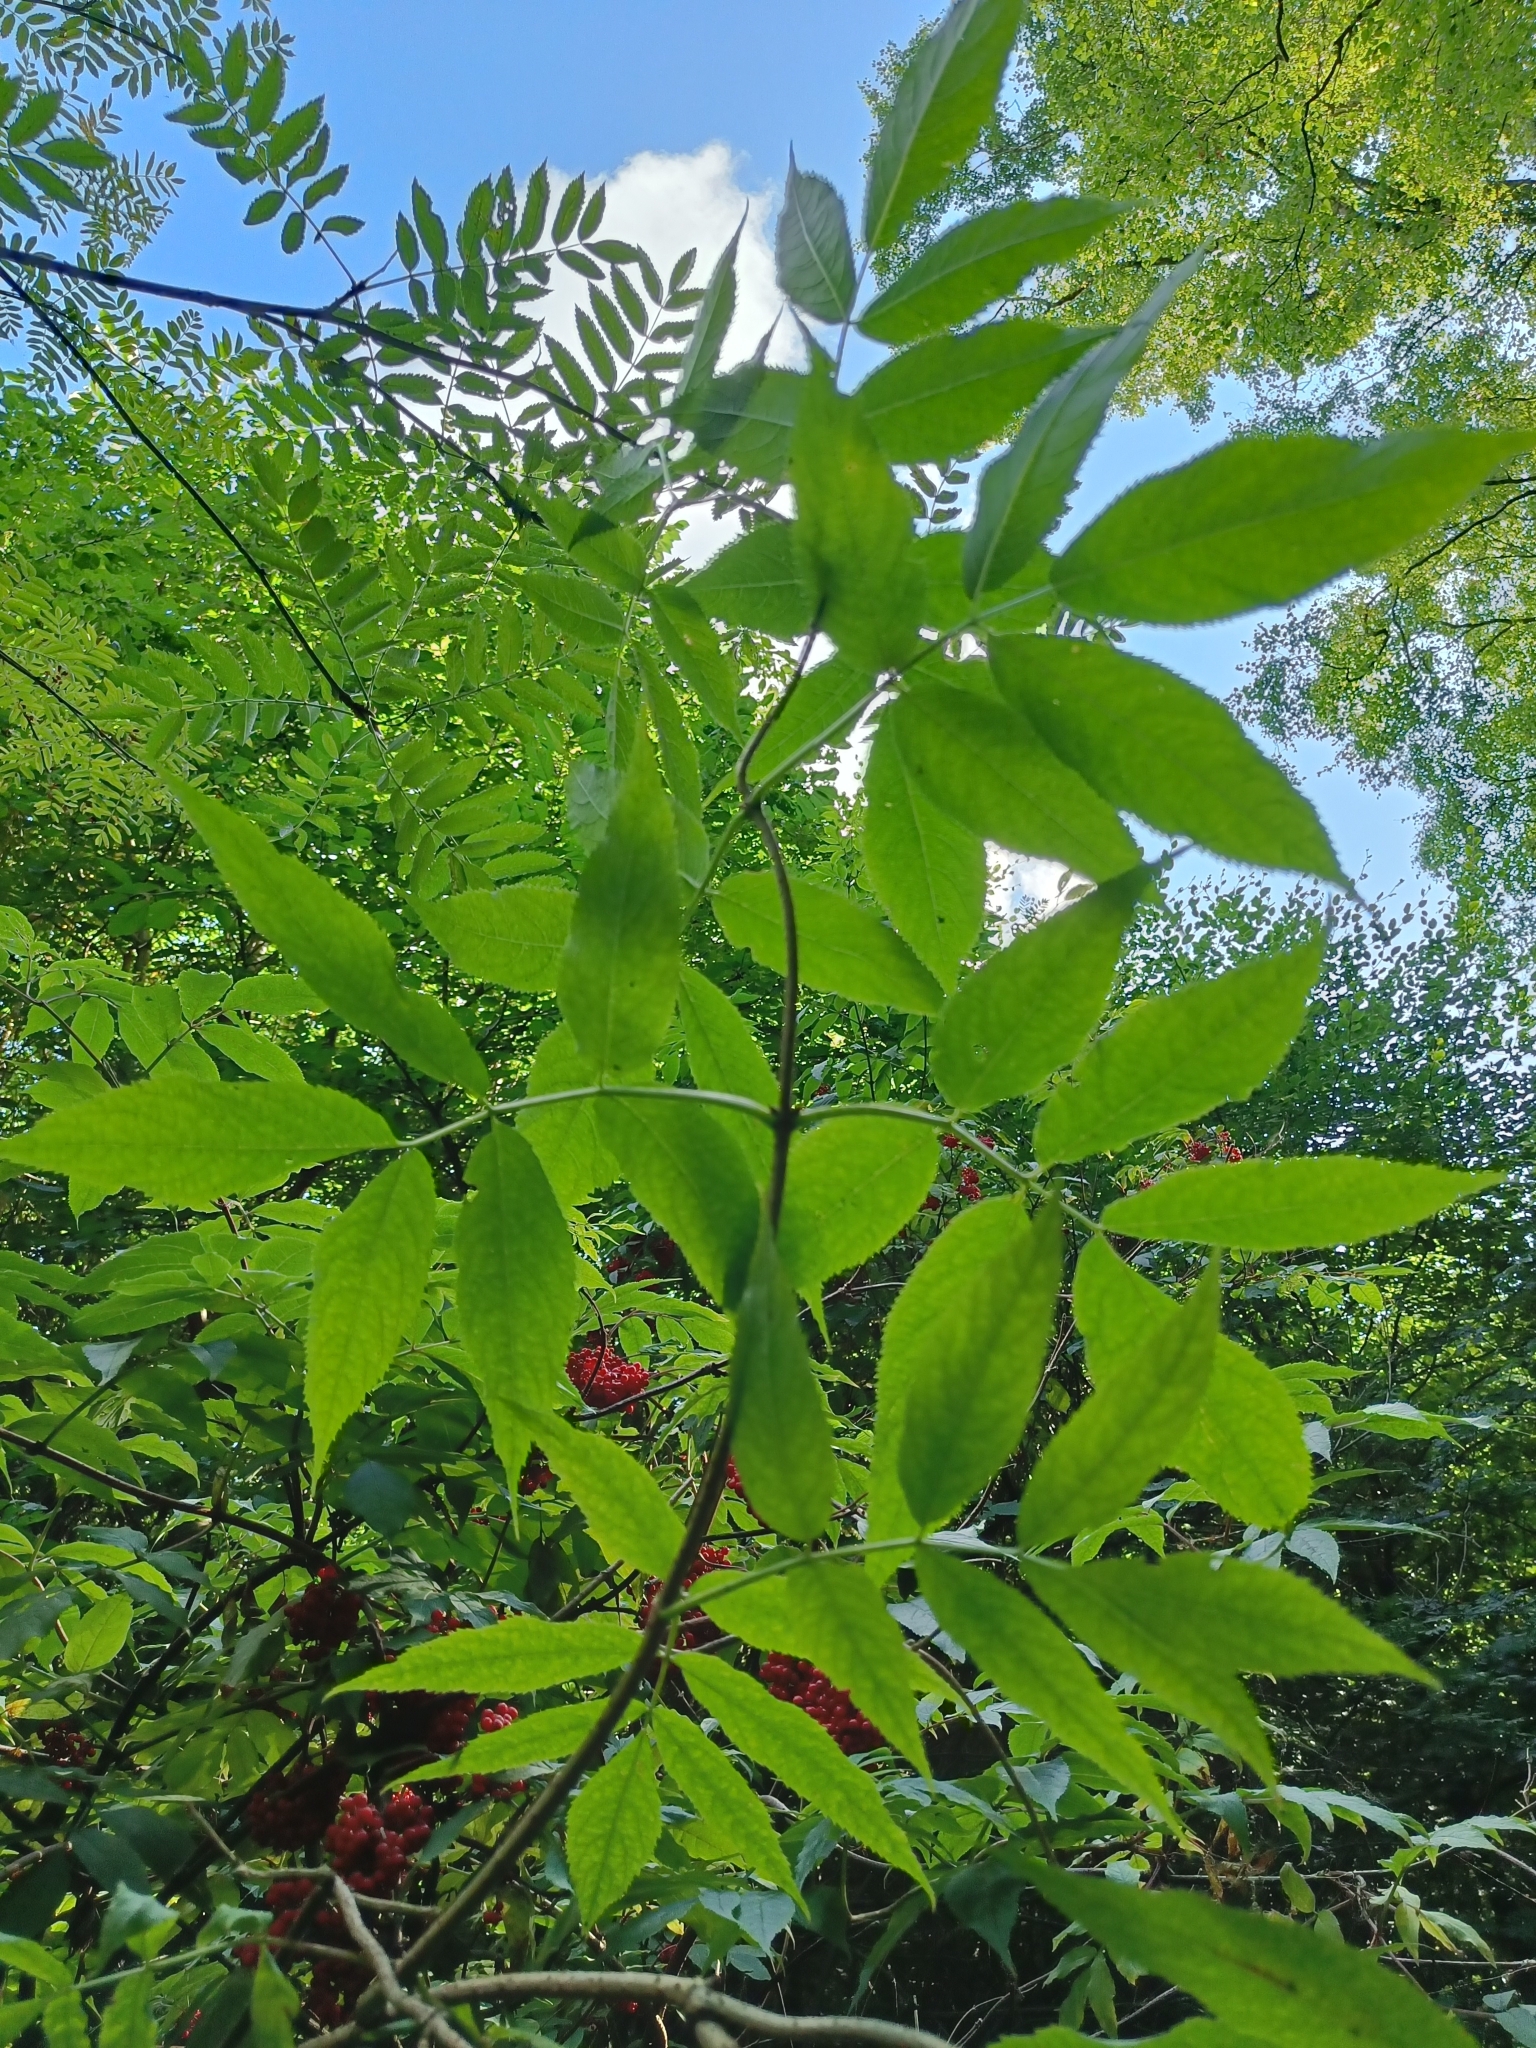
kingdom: Plantae
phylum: Tracheophyta
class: Magnoliopsida
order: Dipsacales
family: Viburnaceae
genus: Sambucus
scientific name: Sambucus racemosa
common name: Red-berried elder
